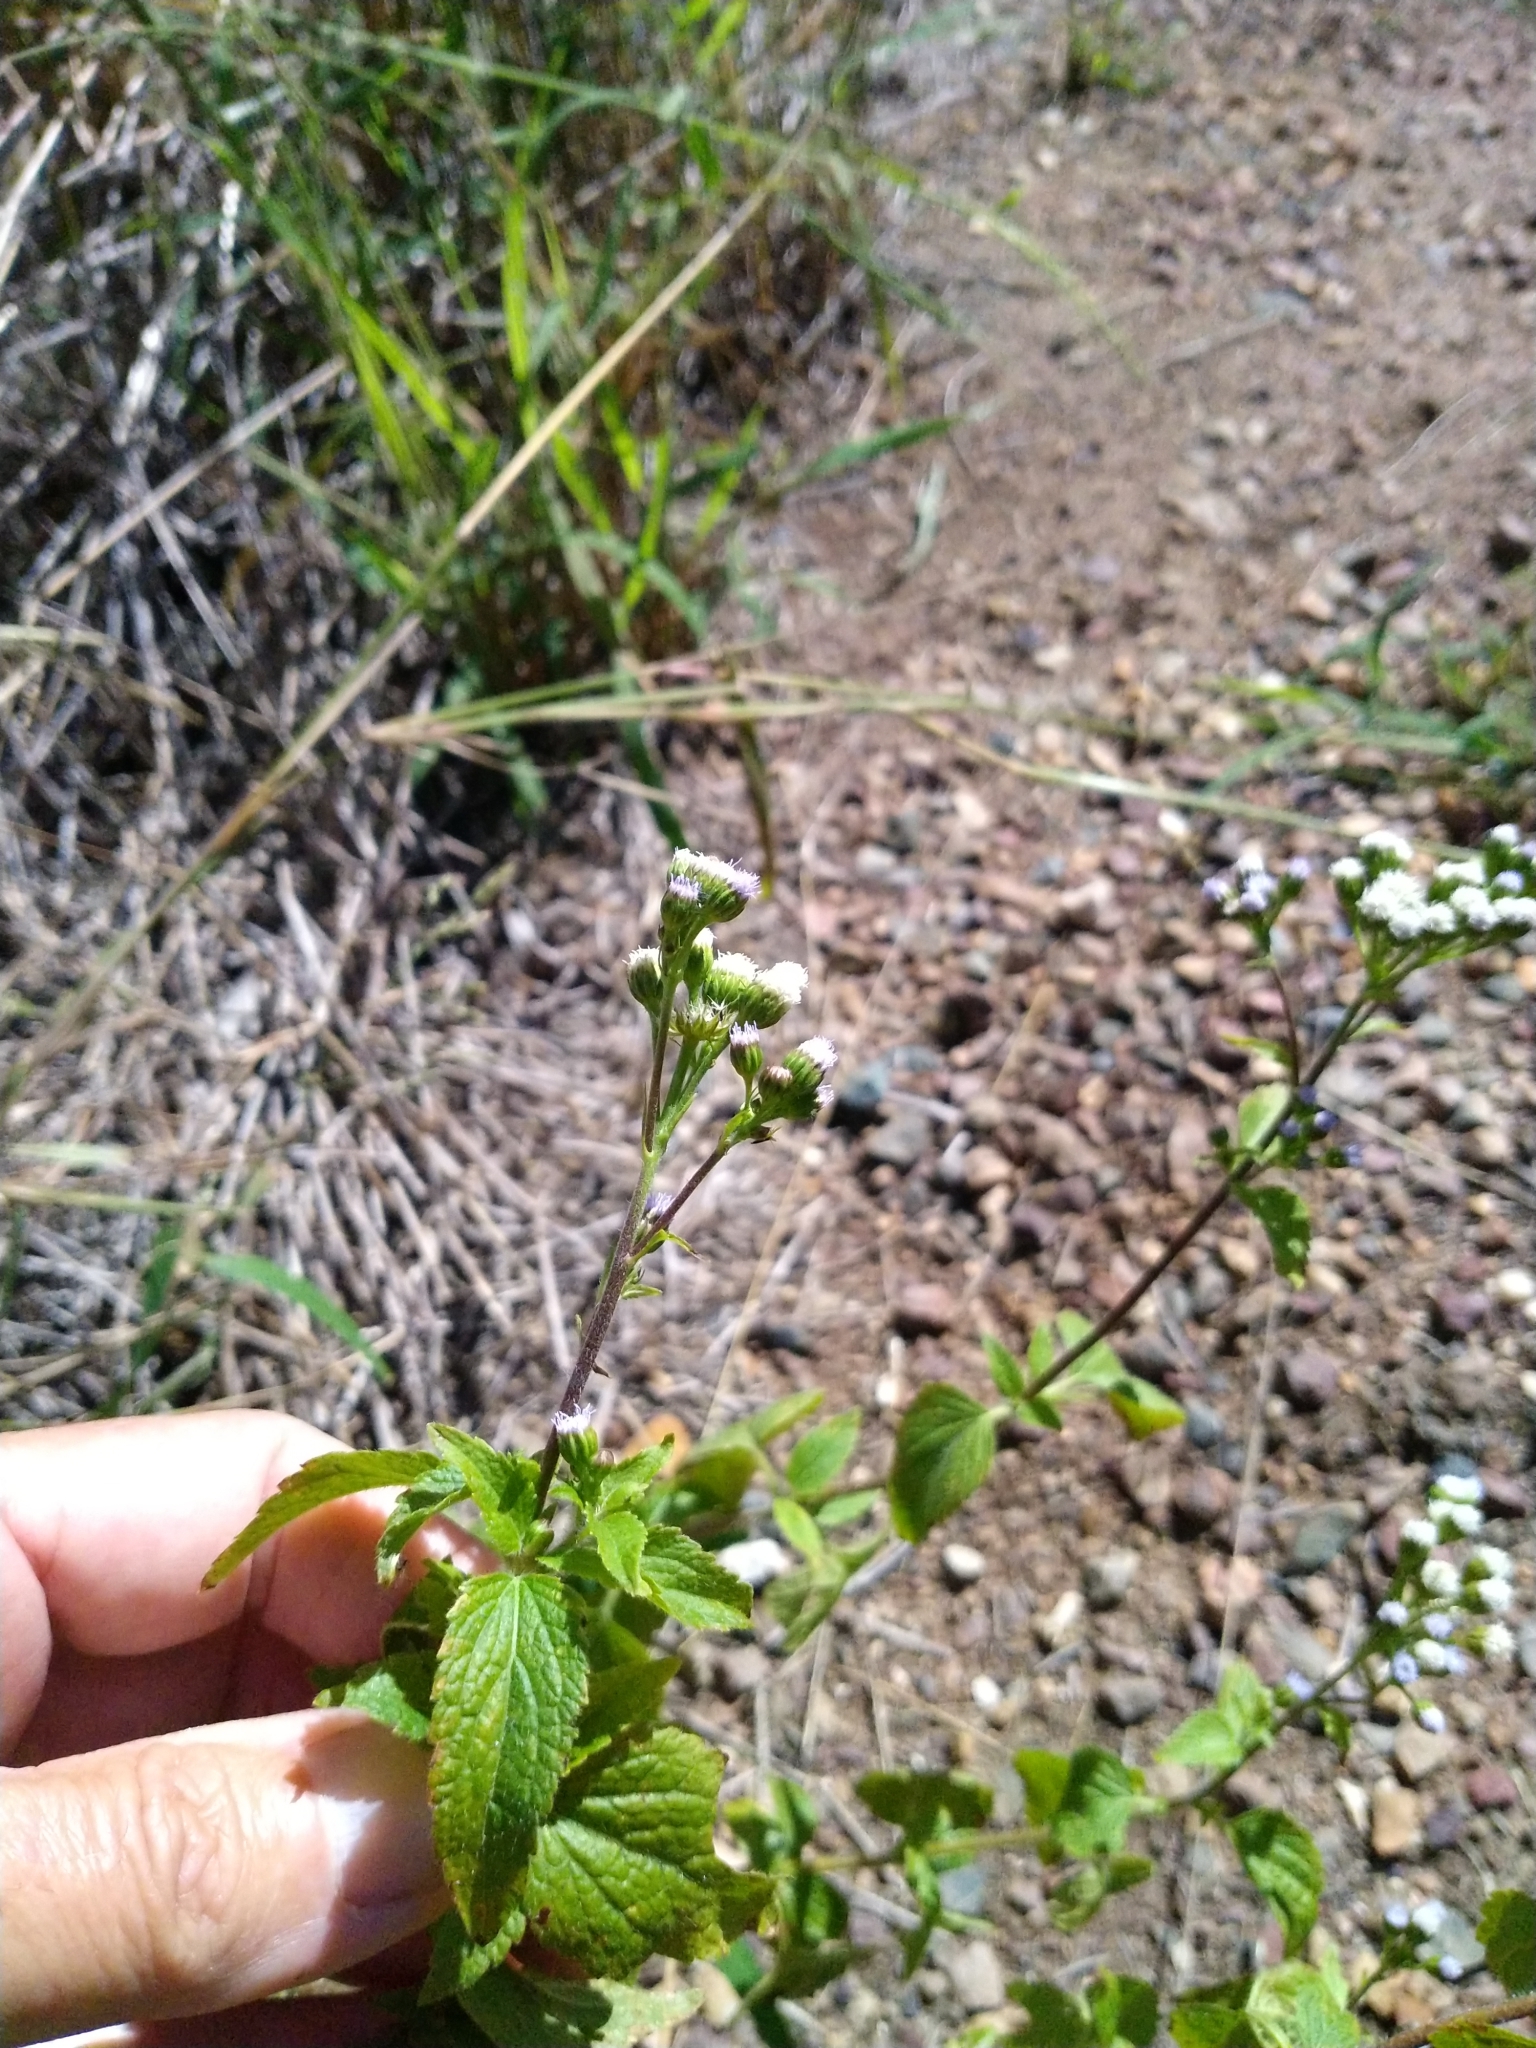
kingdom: Plantae
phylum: Tracheophyta
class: Magnoliopsida
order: Asterales
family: Asteraceae
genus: Ageratum
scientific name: Ageratum conyzoides
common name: Tropical whiteweed
